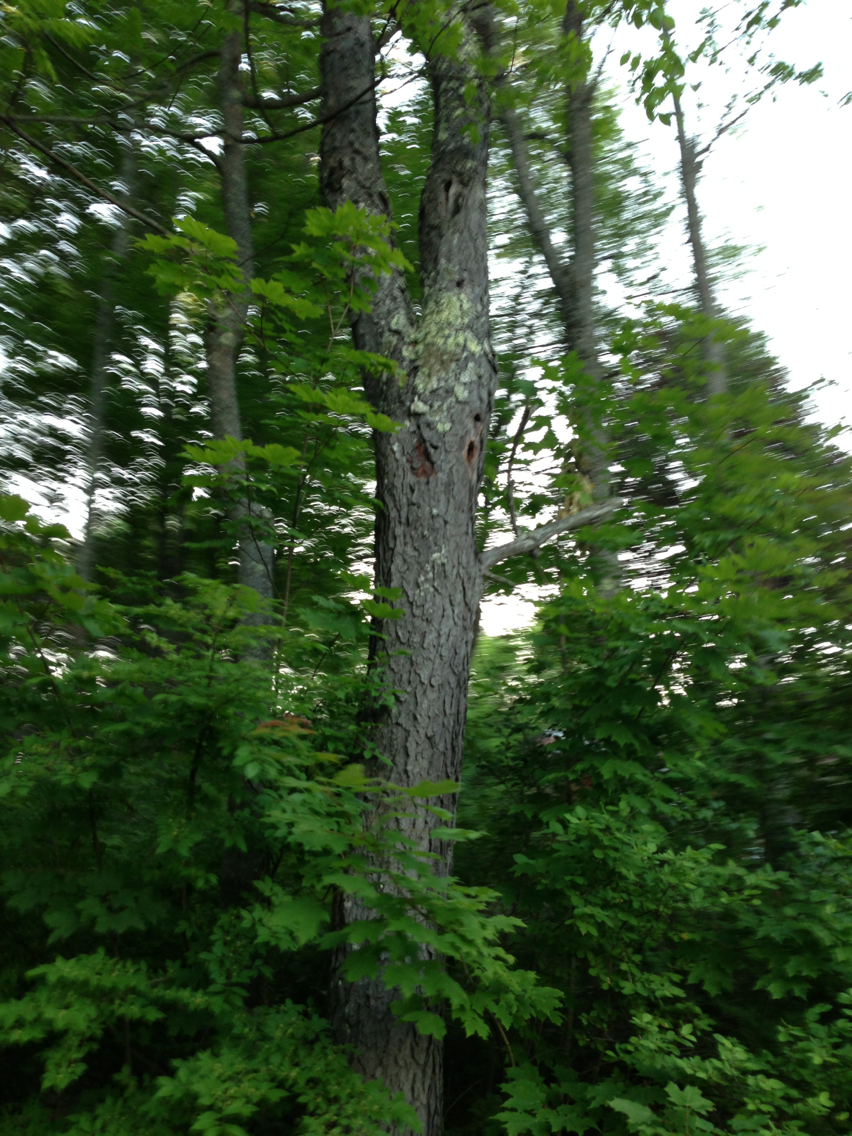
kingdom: Plantae
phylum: Tracheophyta
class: Magnoliopsida
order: Rosales
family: Rosaceae
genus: Prunus
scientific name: Prunus serotina
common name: Black cherry
